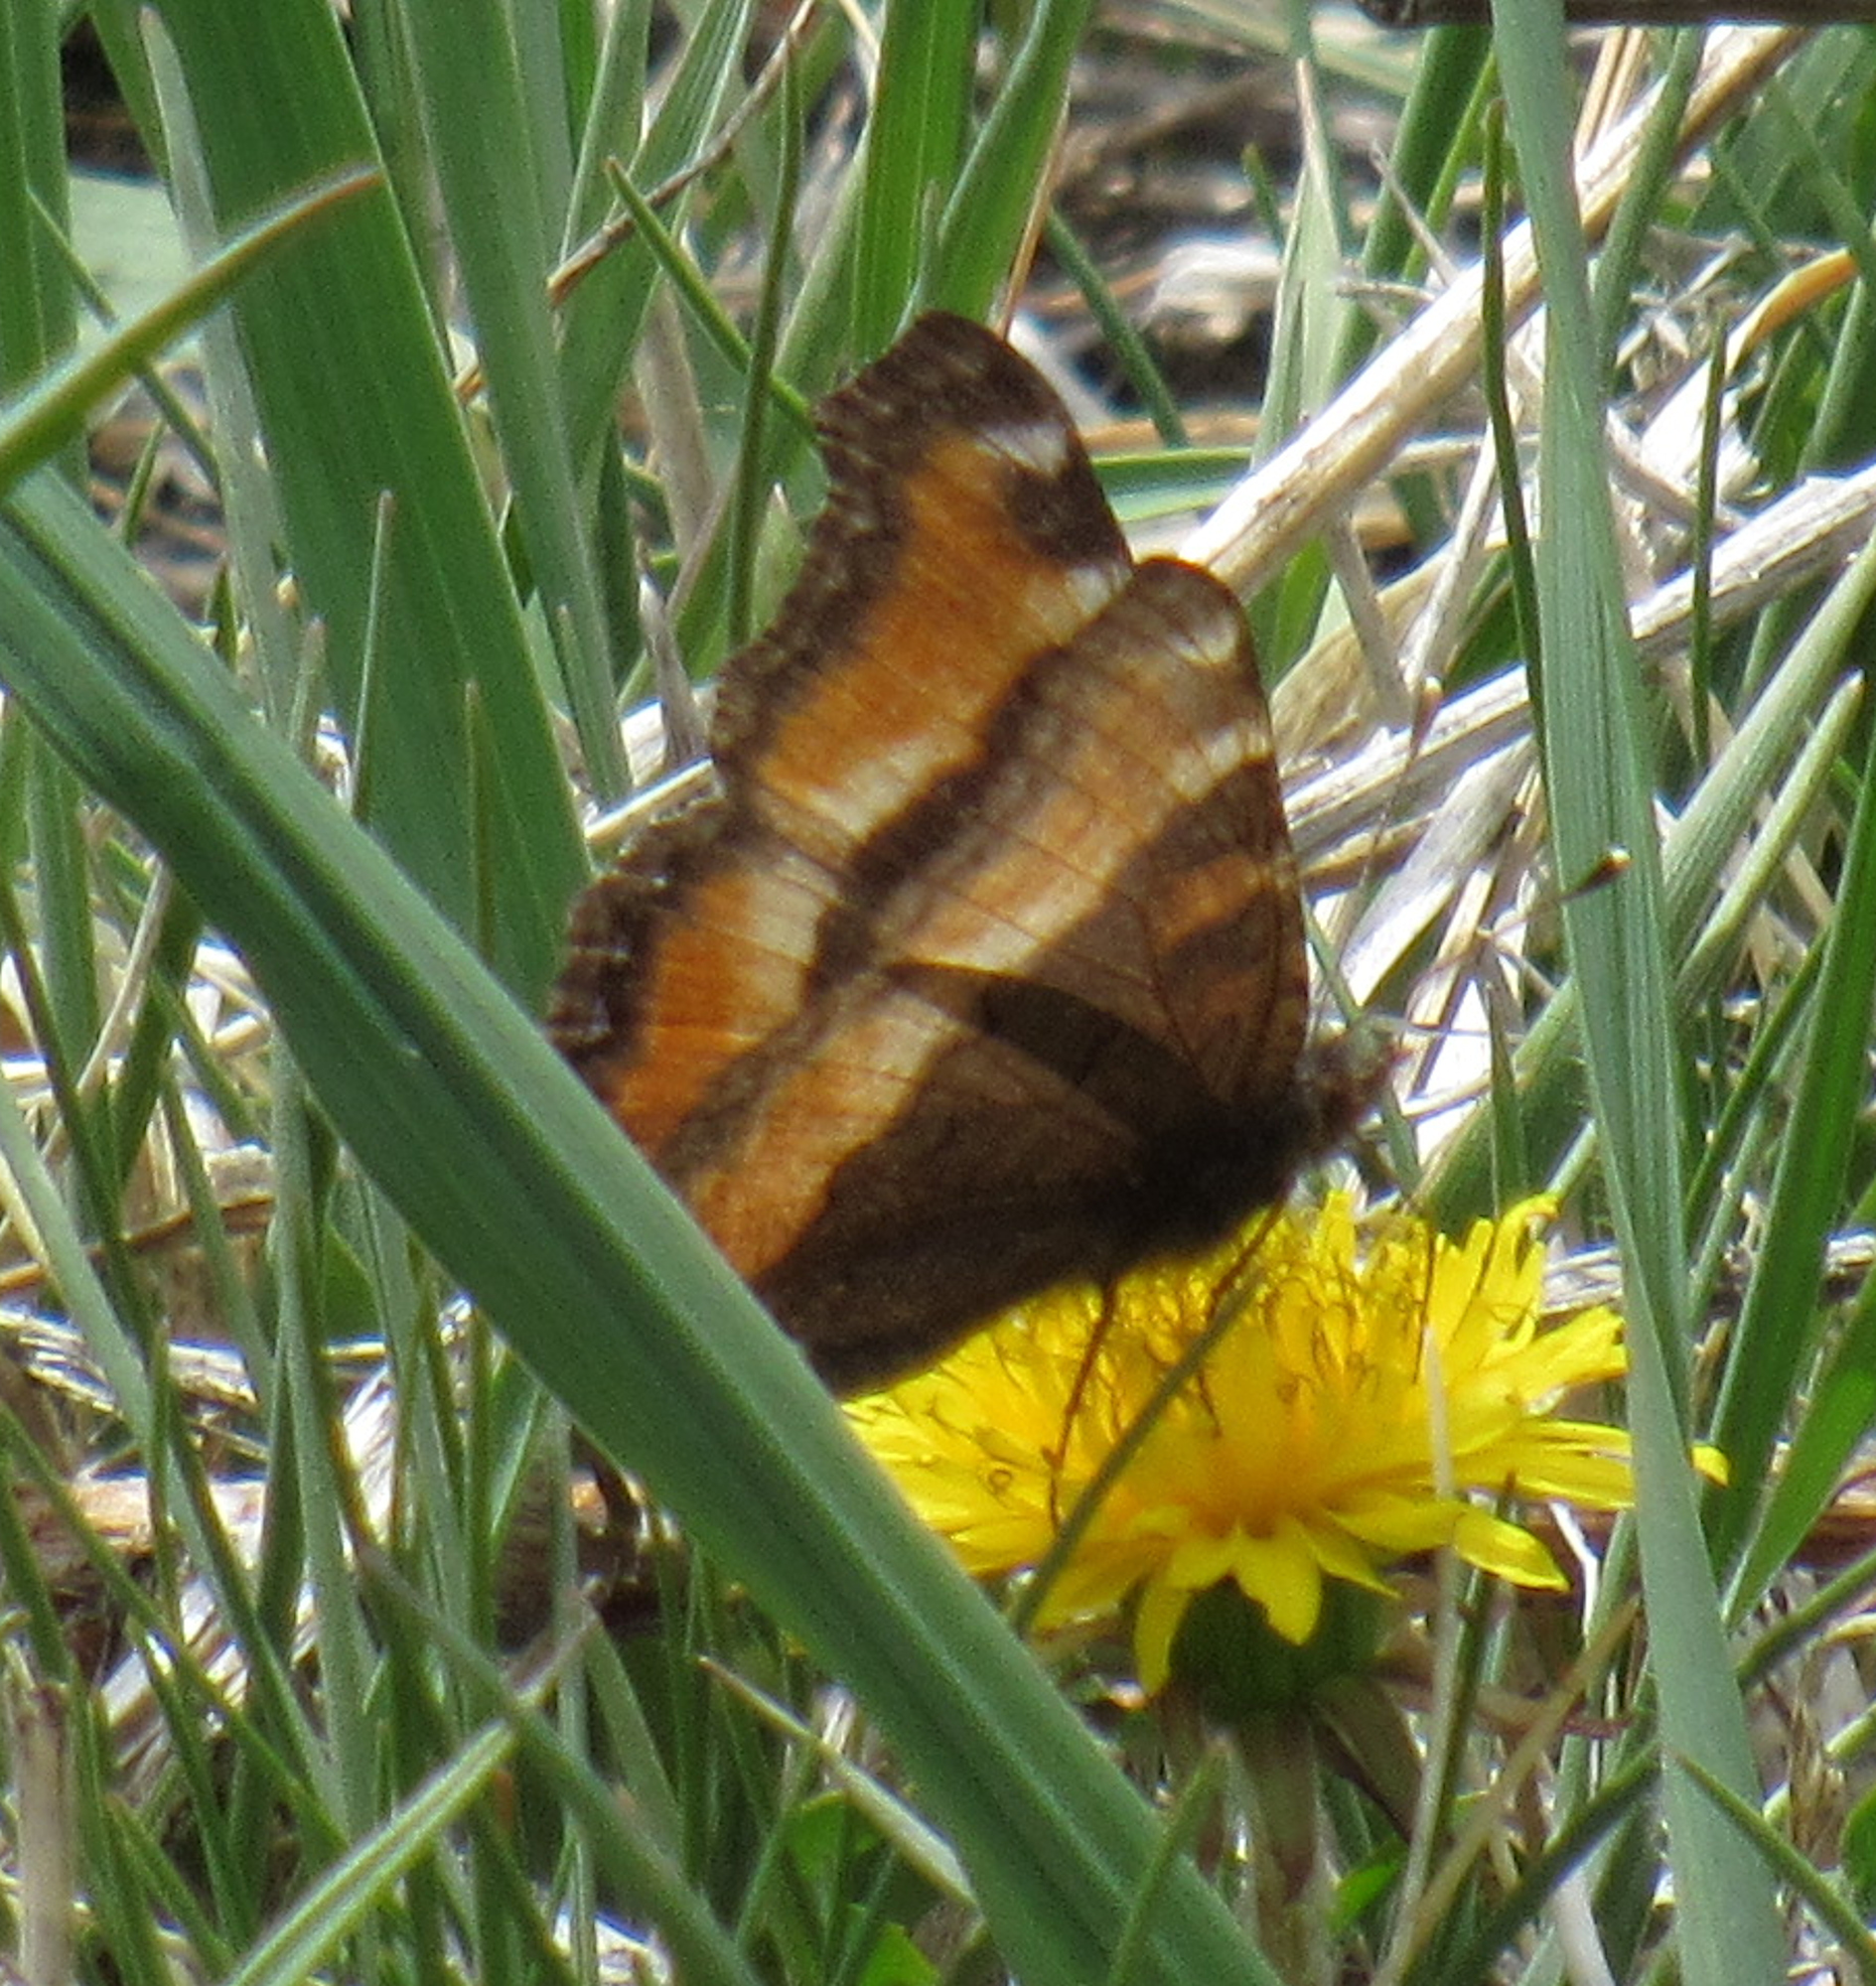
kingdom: Animalia
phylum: Arthropoda
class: Insecta
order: Lepidoptera
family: Nymphalidae
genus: Aglais
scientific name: Aglais milberti
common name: Milbert's tortoiseshell
